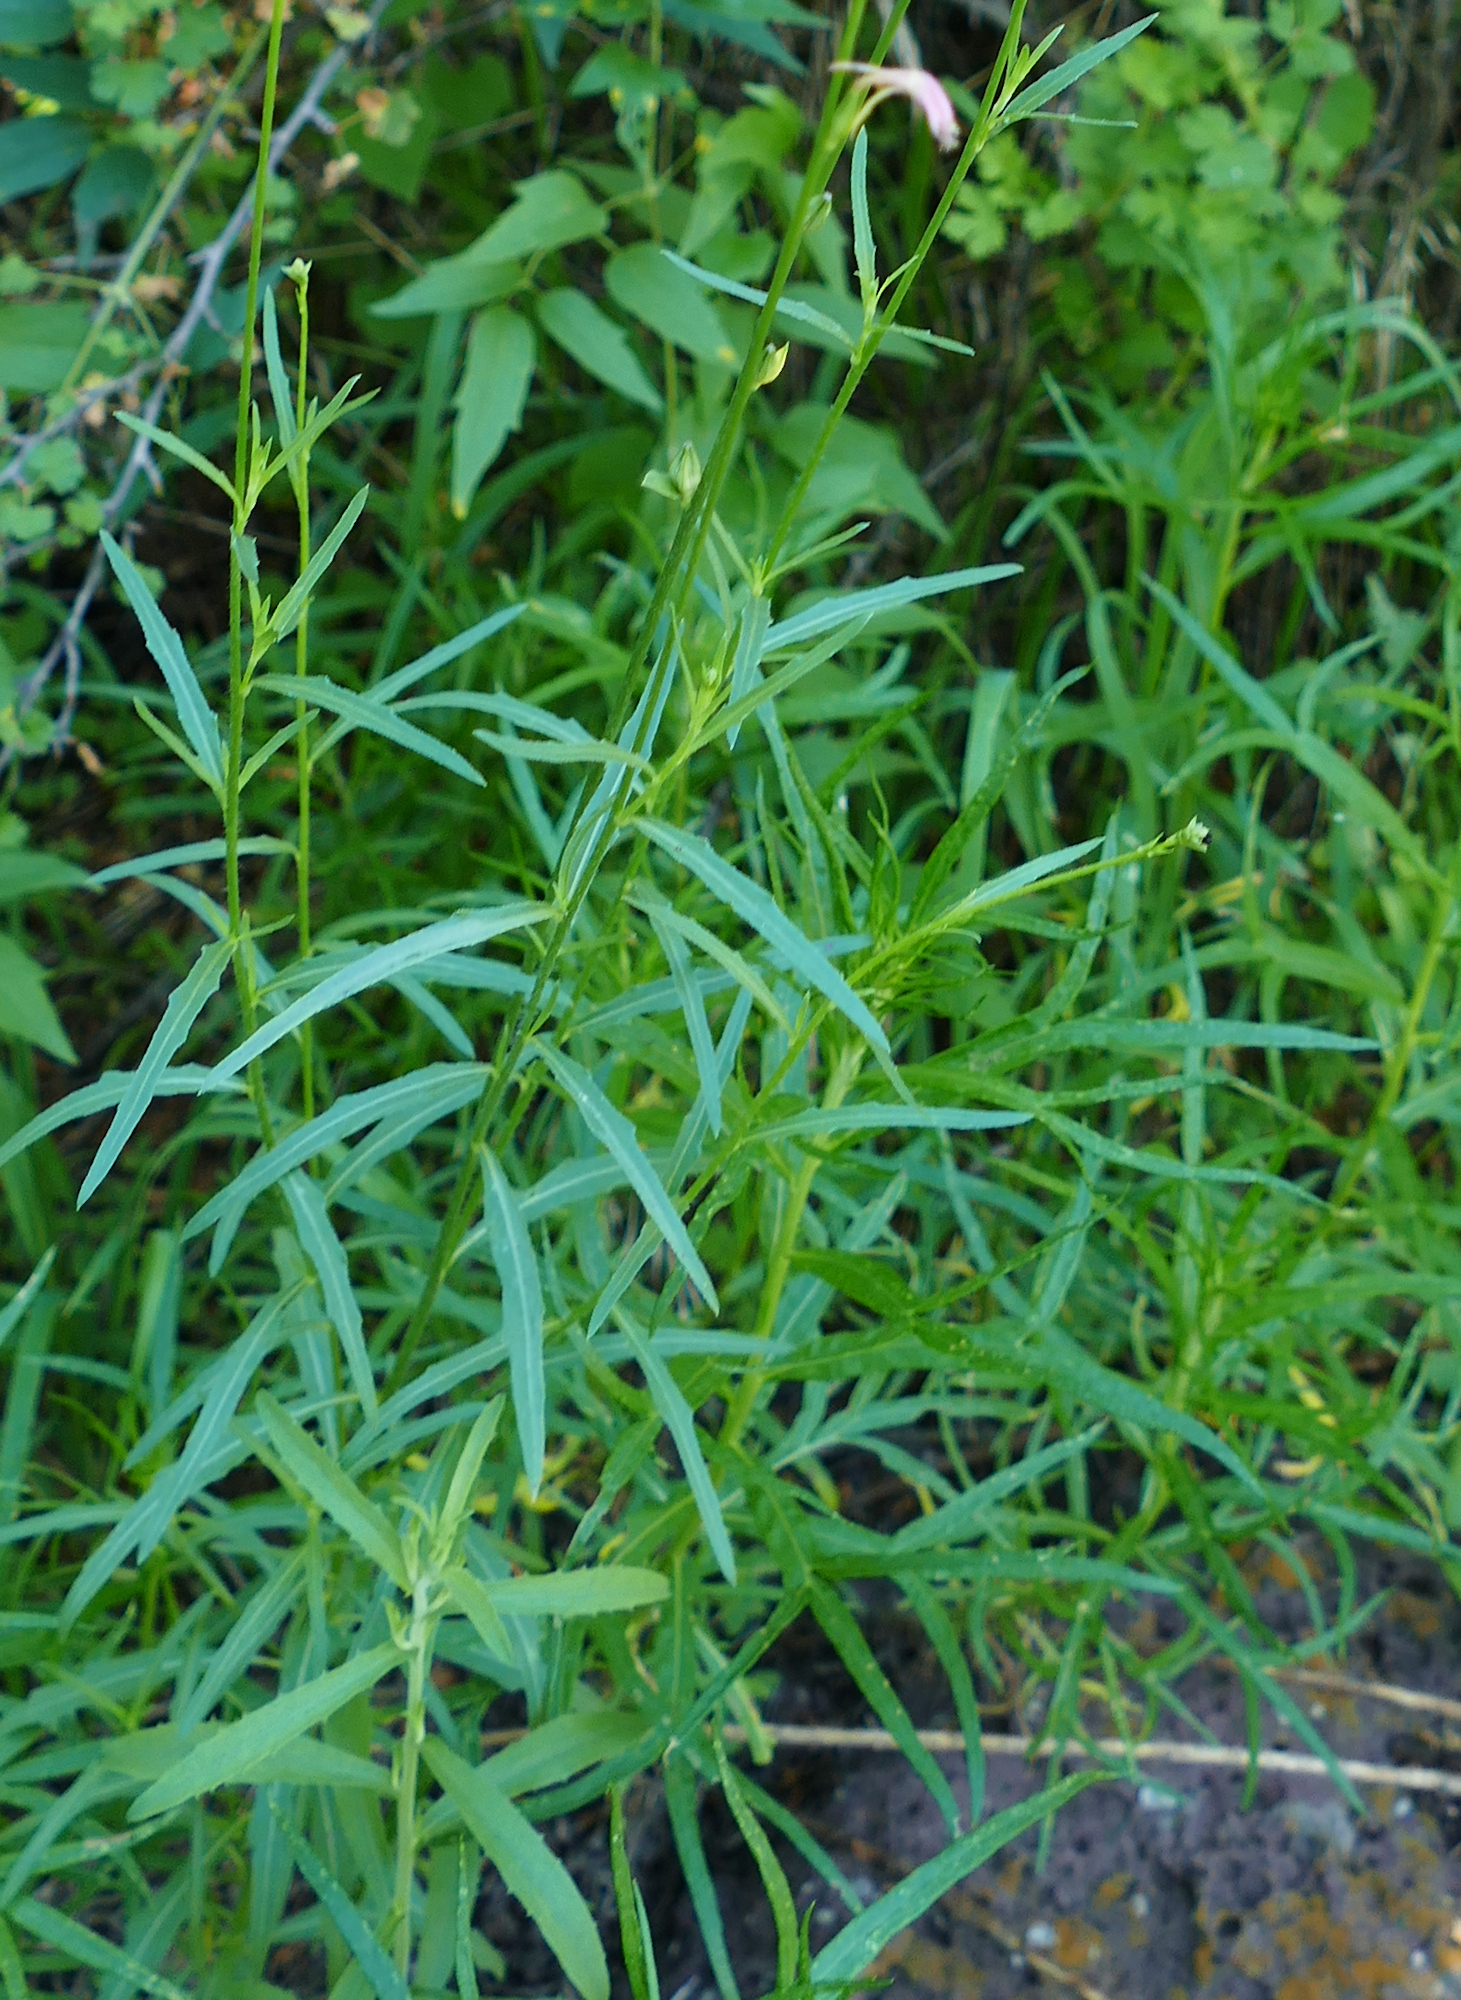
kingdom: Plantae
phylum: Tracheophyta
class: Magnoliopsida
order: Myrtales
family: Onagraceae
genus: Oenothera
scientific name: Oenothera podocarpa
